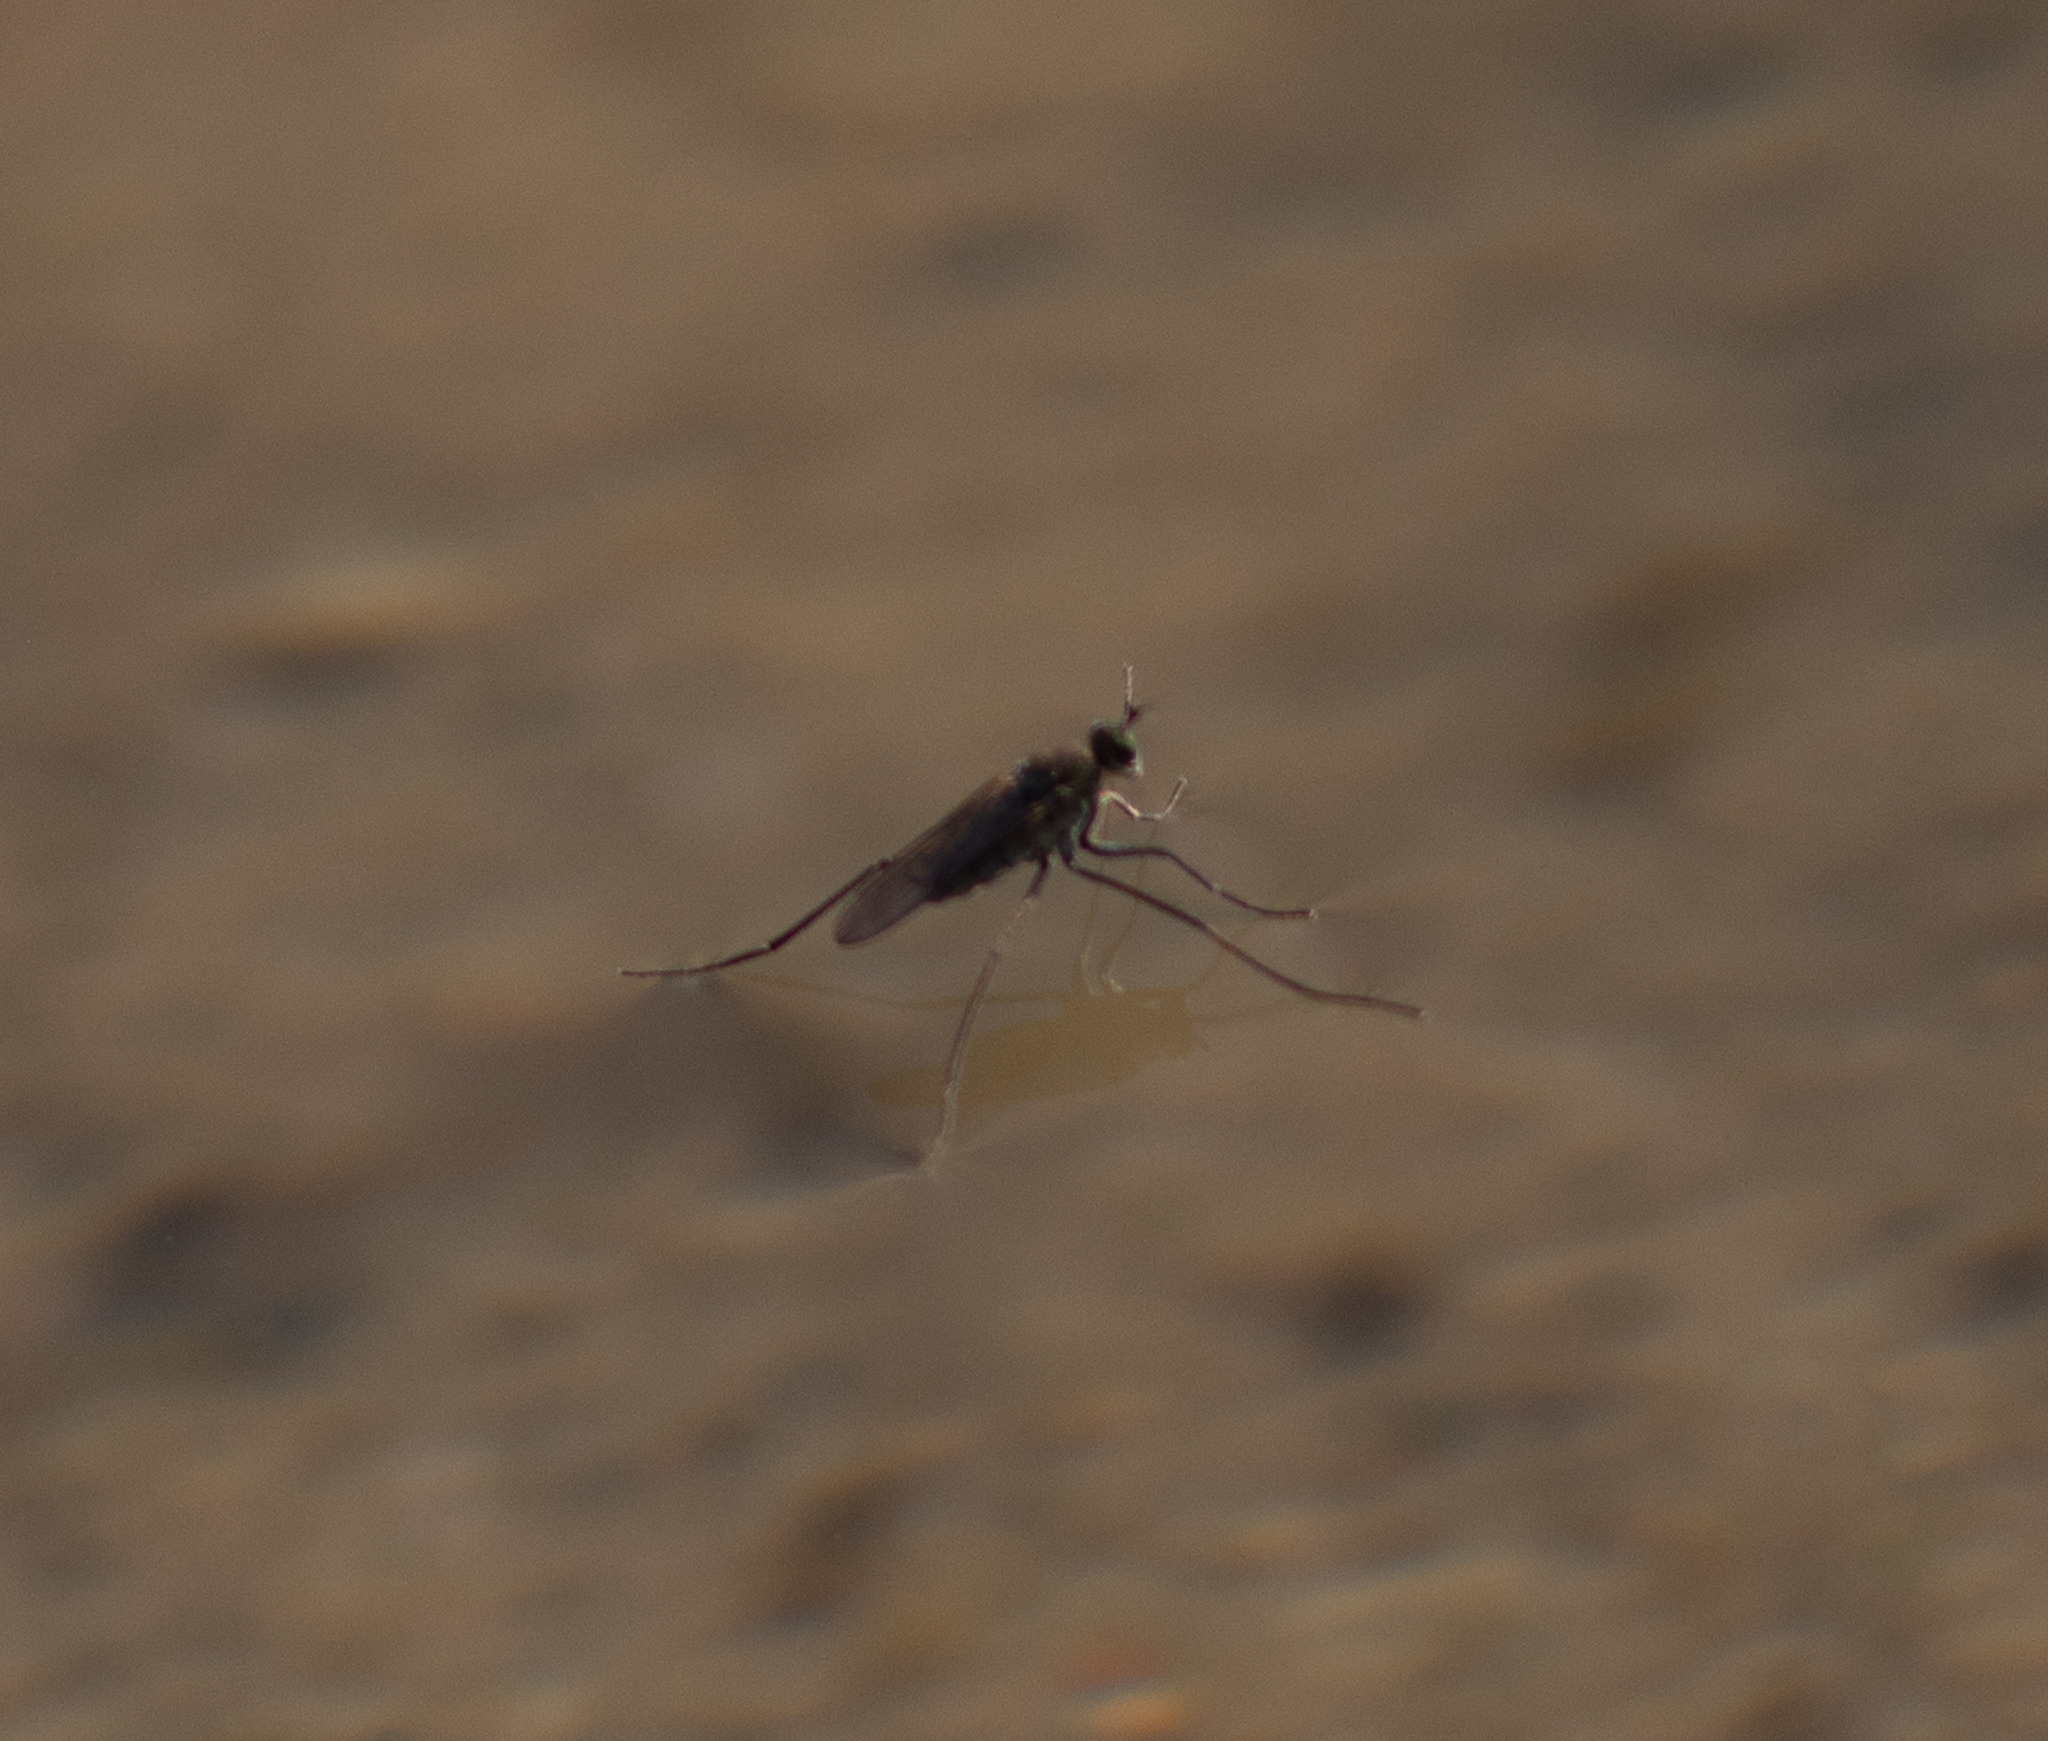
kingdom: Animalia
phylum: Arthropoda
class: Insecta
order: Diptera
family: Dolichopodidae
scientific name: Dolichopodidae
